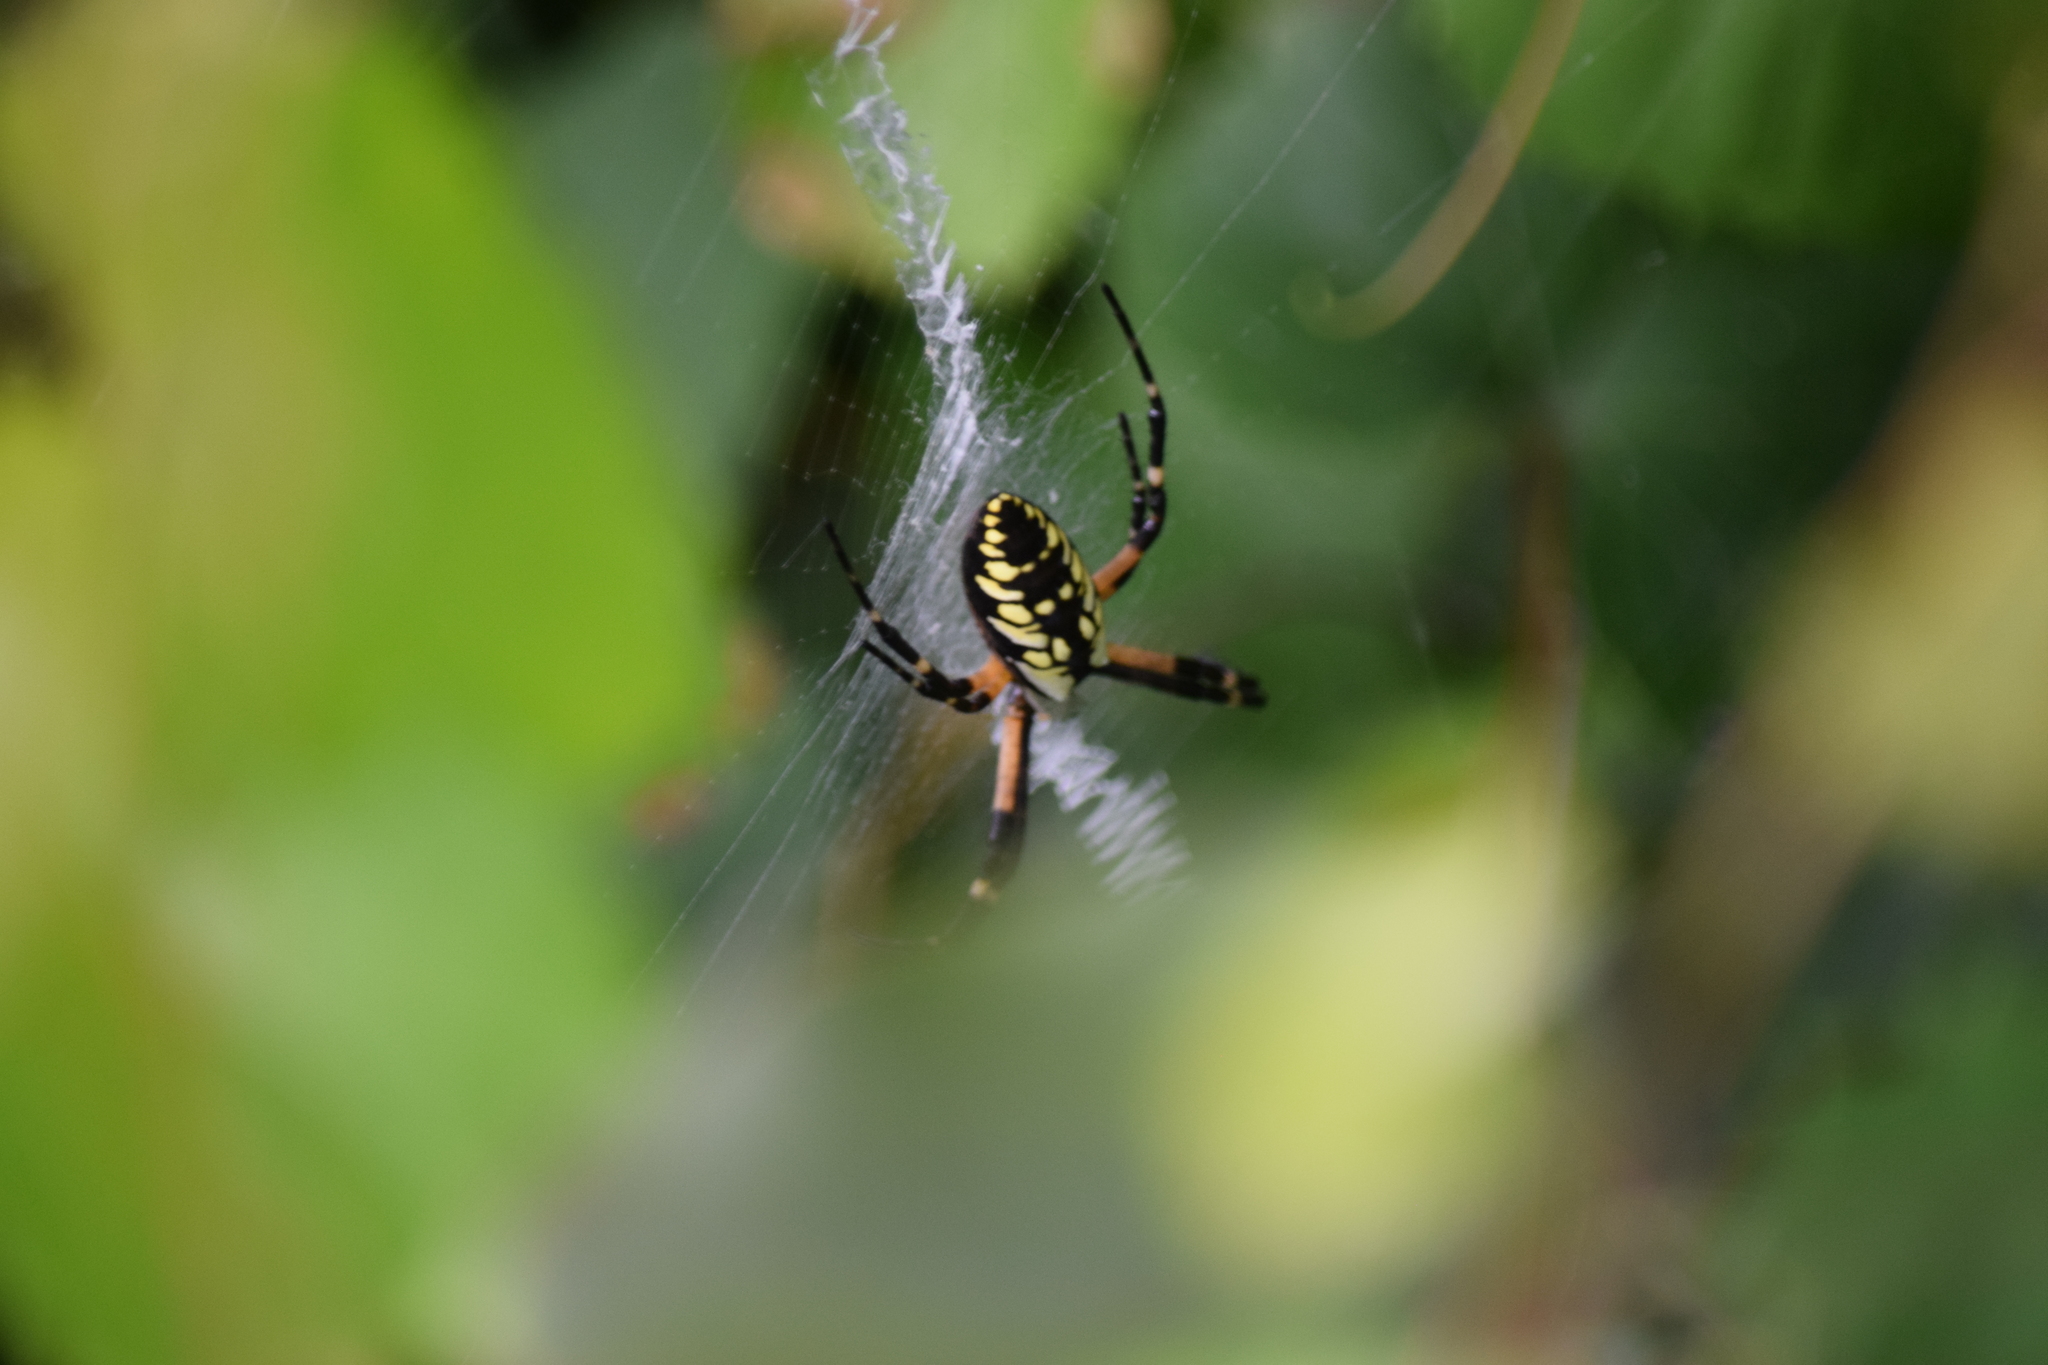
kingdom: Animalia
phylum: Arthropoda
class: Arachnida
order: Araneae
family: Araneidae
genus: Argiope
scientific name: Argiope aurantia
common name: Orb weavers
